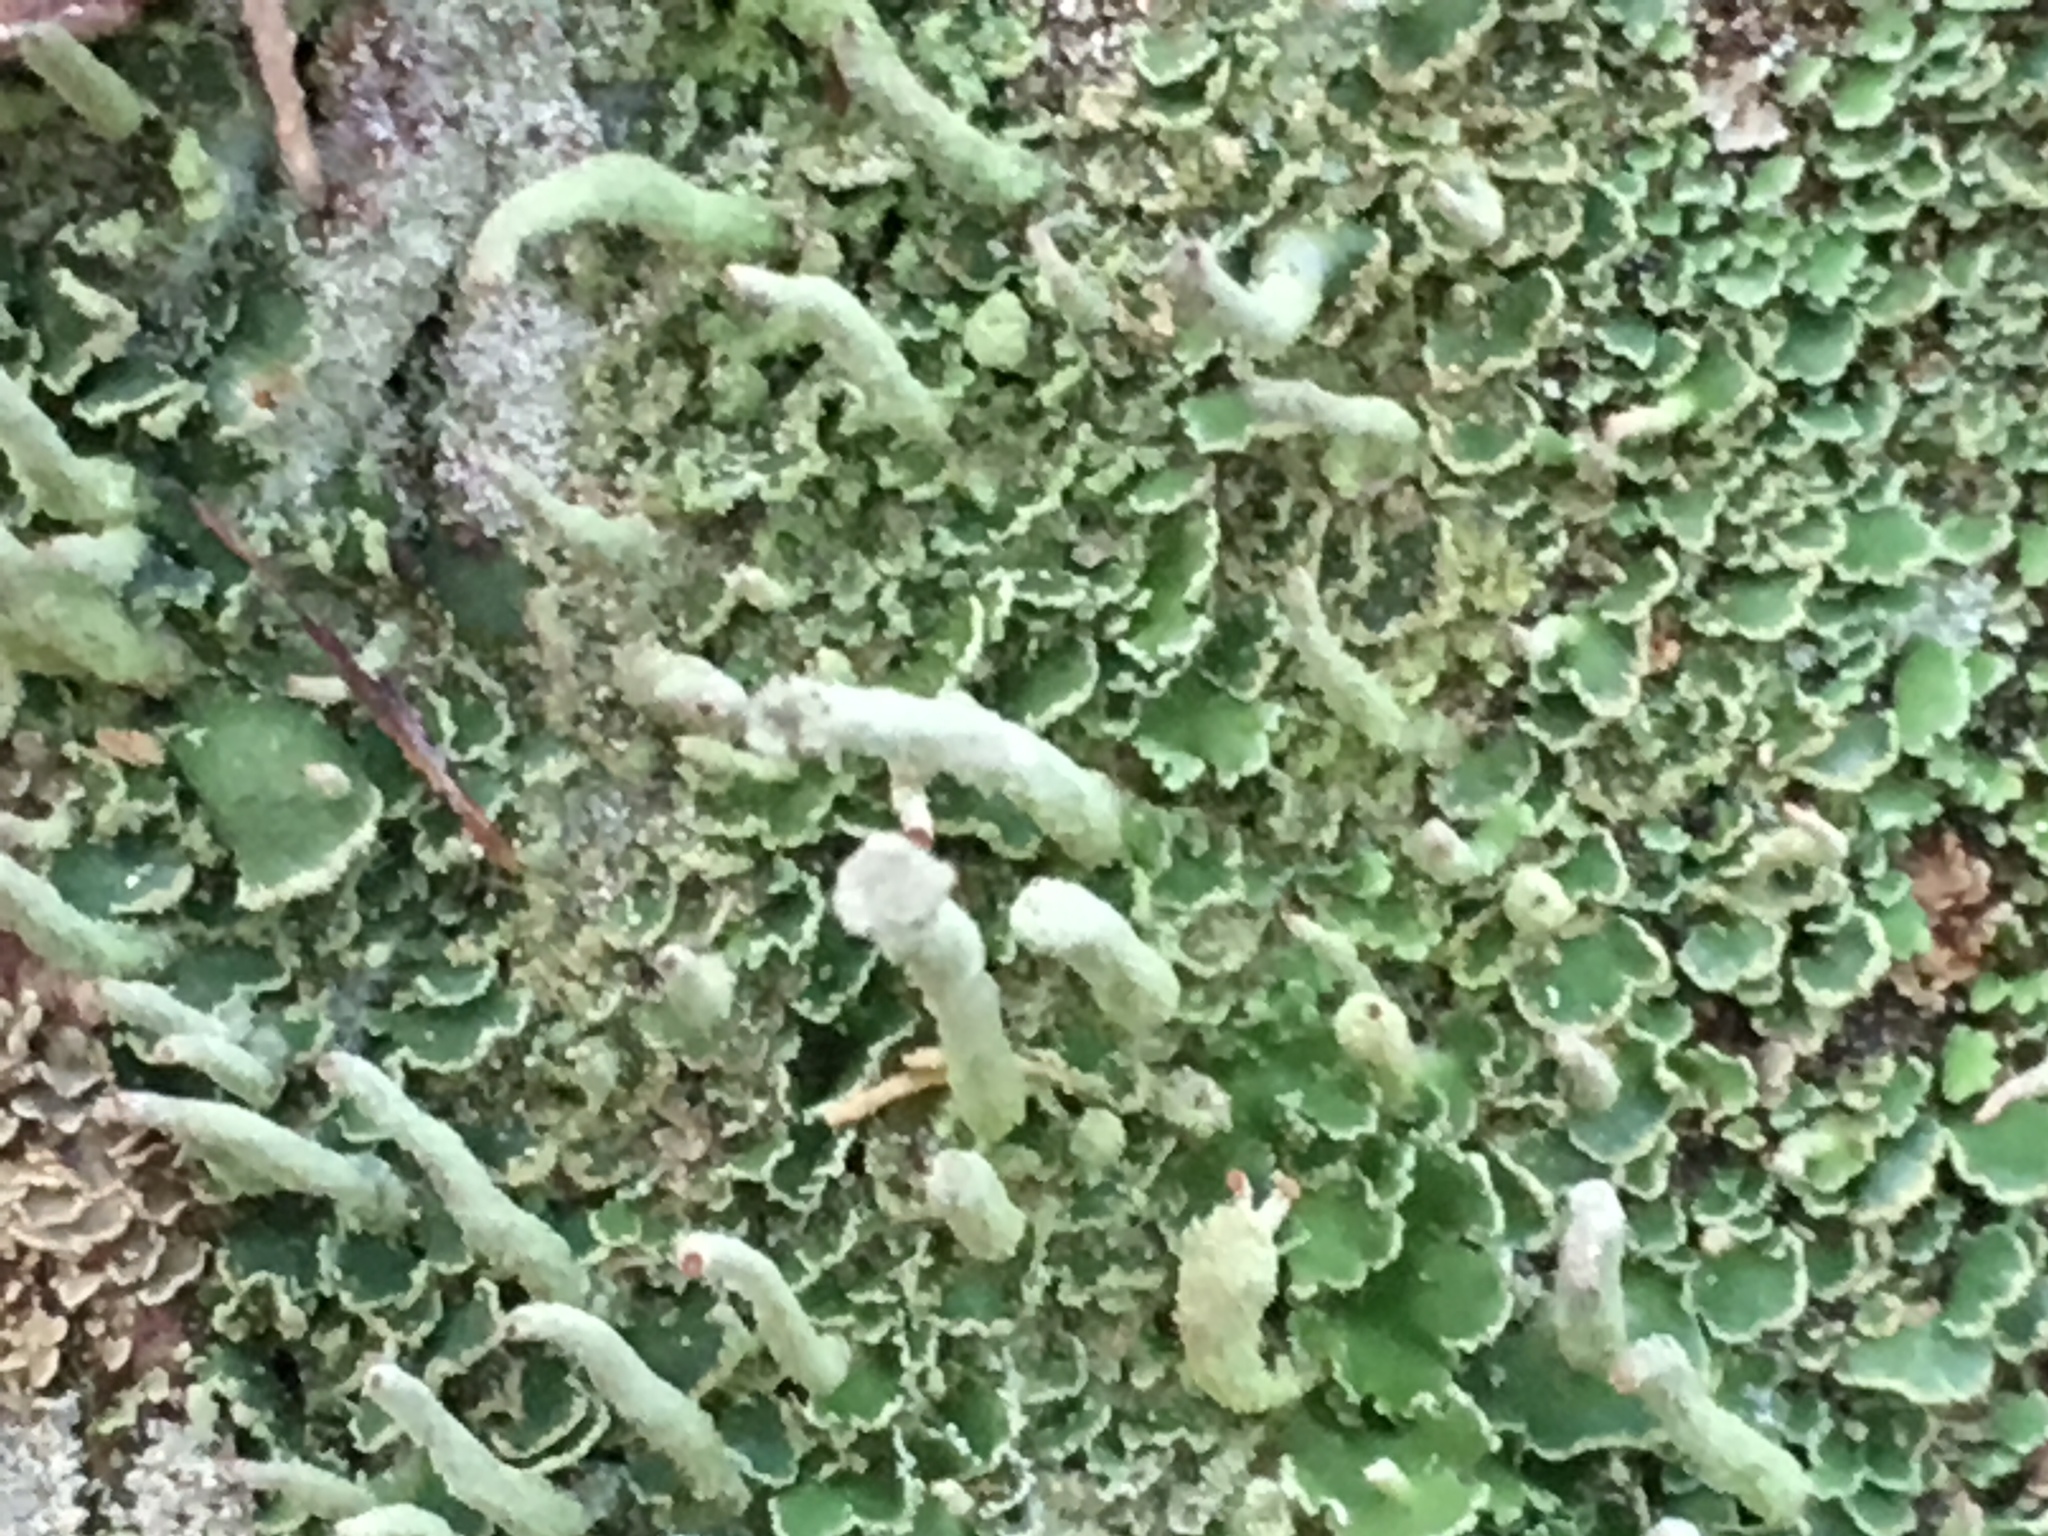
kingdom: Fungi
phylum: Ascomycota
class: Lecanoromycetes
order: Lecanorales
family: Cladoniaceae
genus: Cladonia
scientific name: Cladonia coniocraea
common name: Common powderhorn
